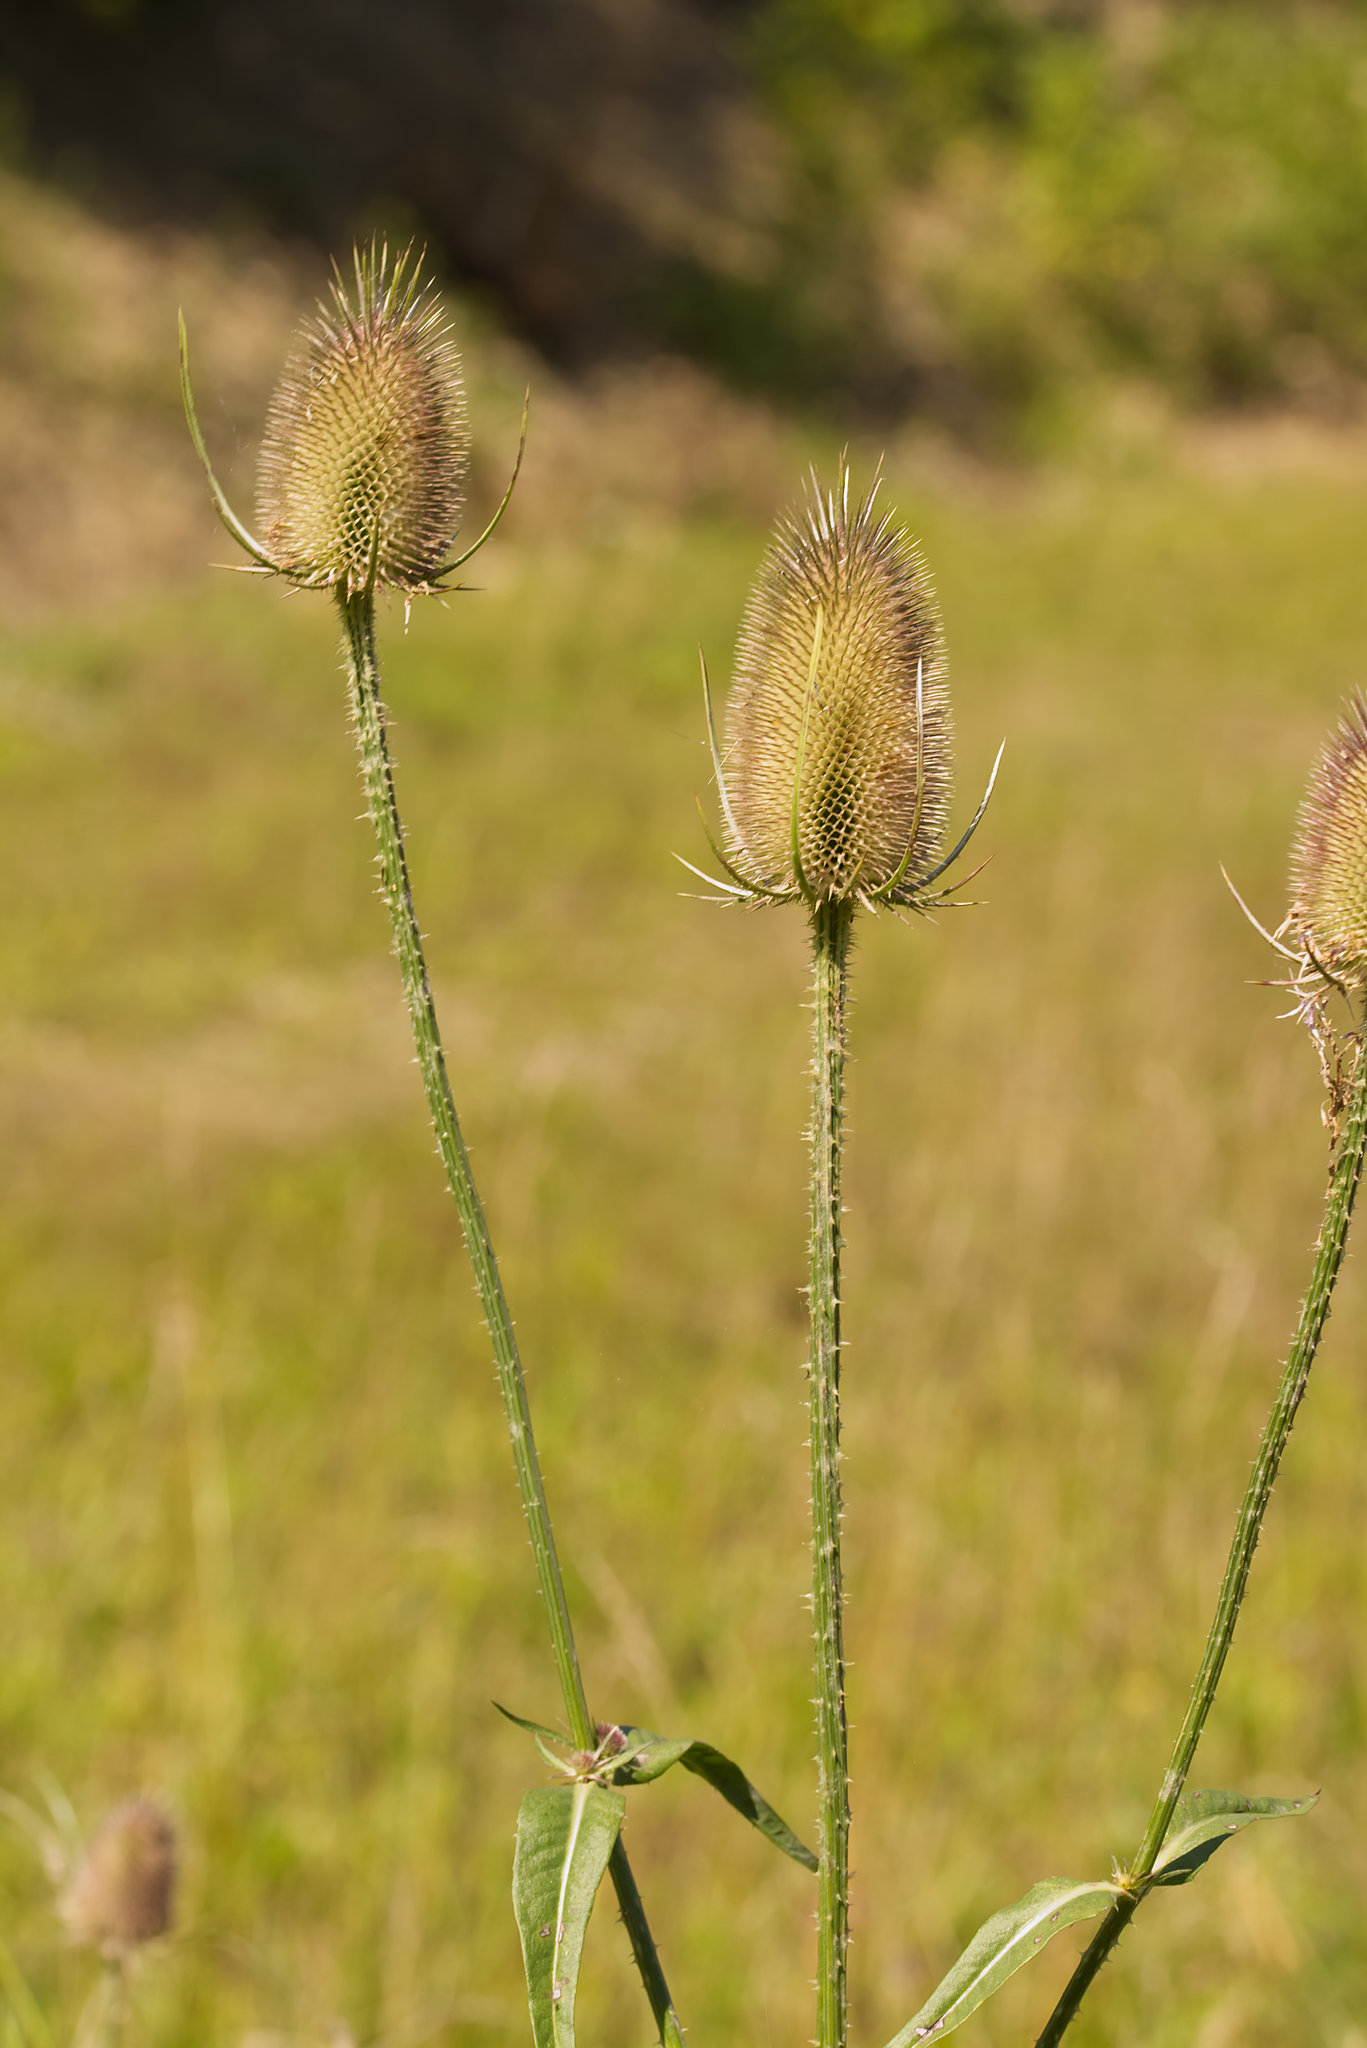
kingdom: Plantae
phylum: Tracheophyta
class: Magnoliopsida
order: Dipsacales
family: Caprifoliaceae
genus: Dipsacus
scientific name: Dipsacus fullonum
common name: Teasel
